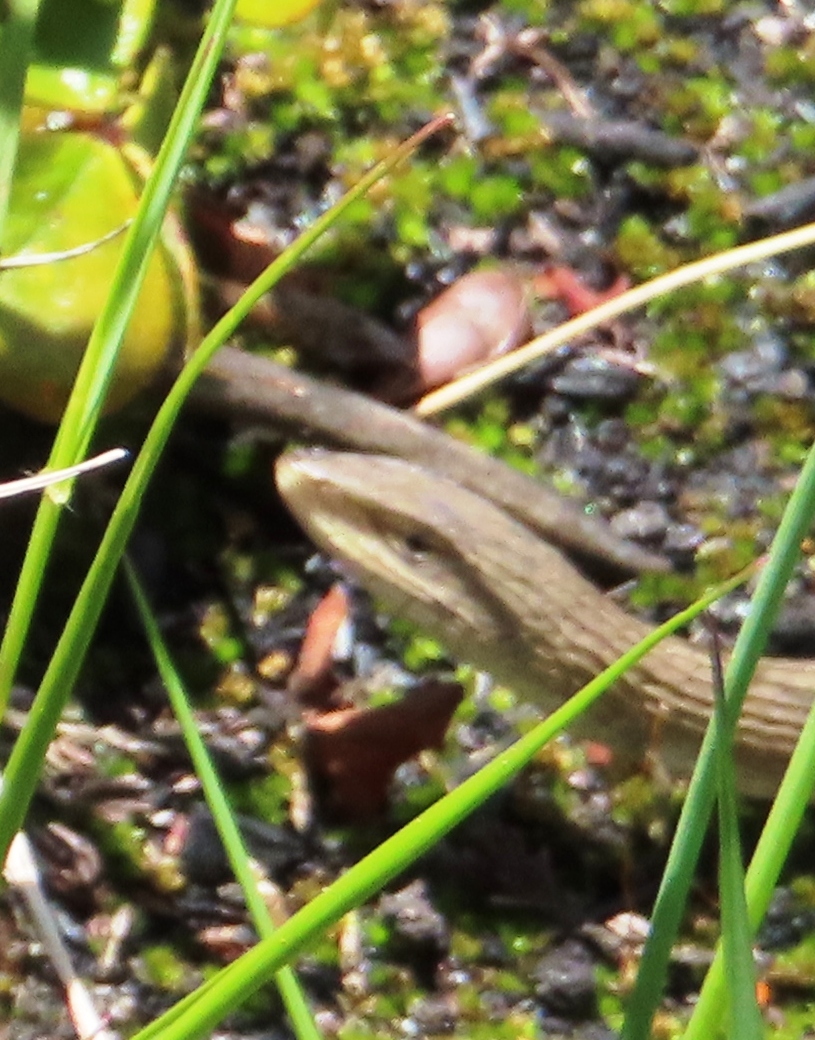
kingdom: Animalia
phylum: Chordata
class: Squamata
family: Cordylidae
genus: Chamaesaura
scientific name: Chamaesaura anguina
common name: Cape snake lizard
